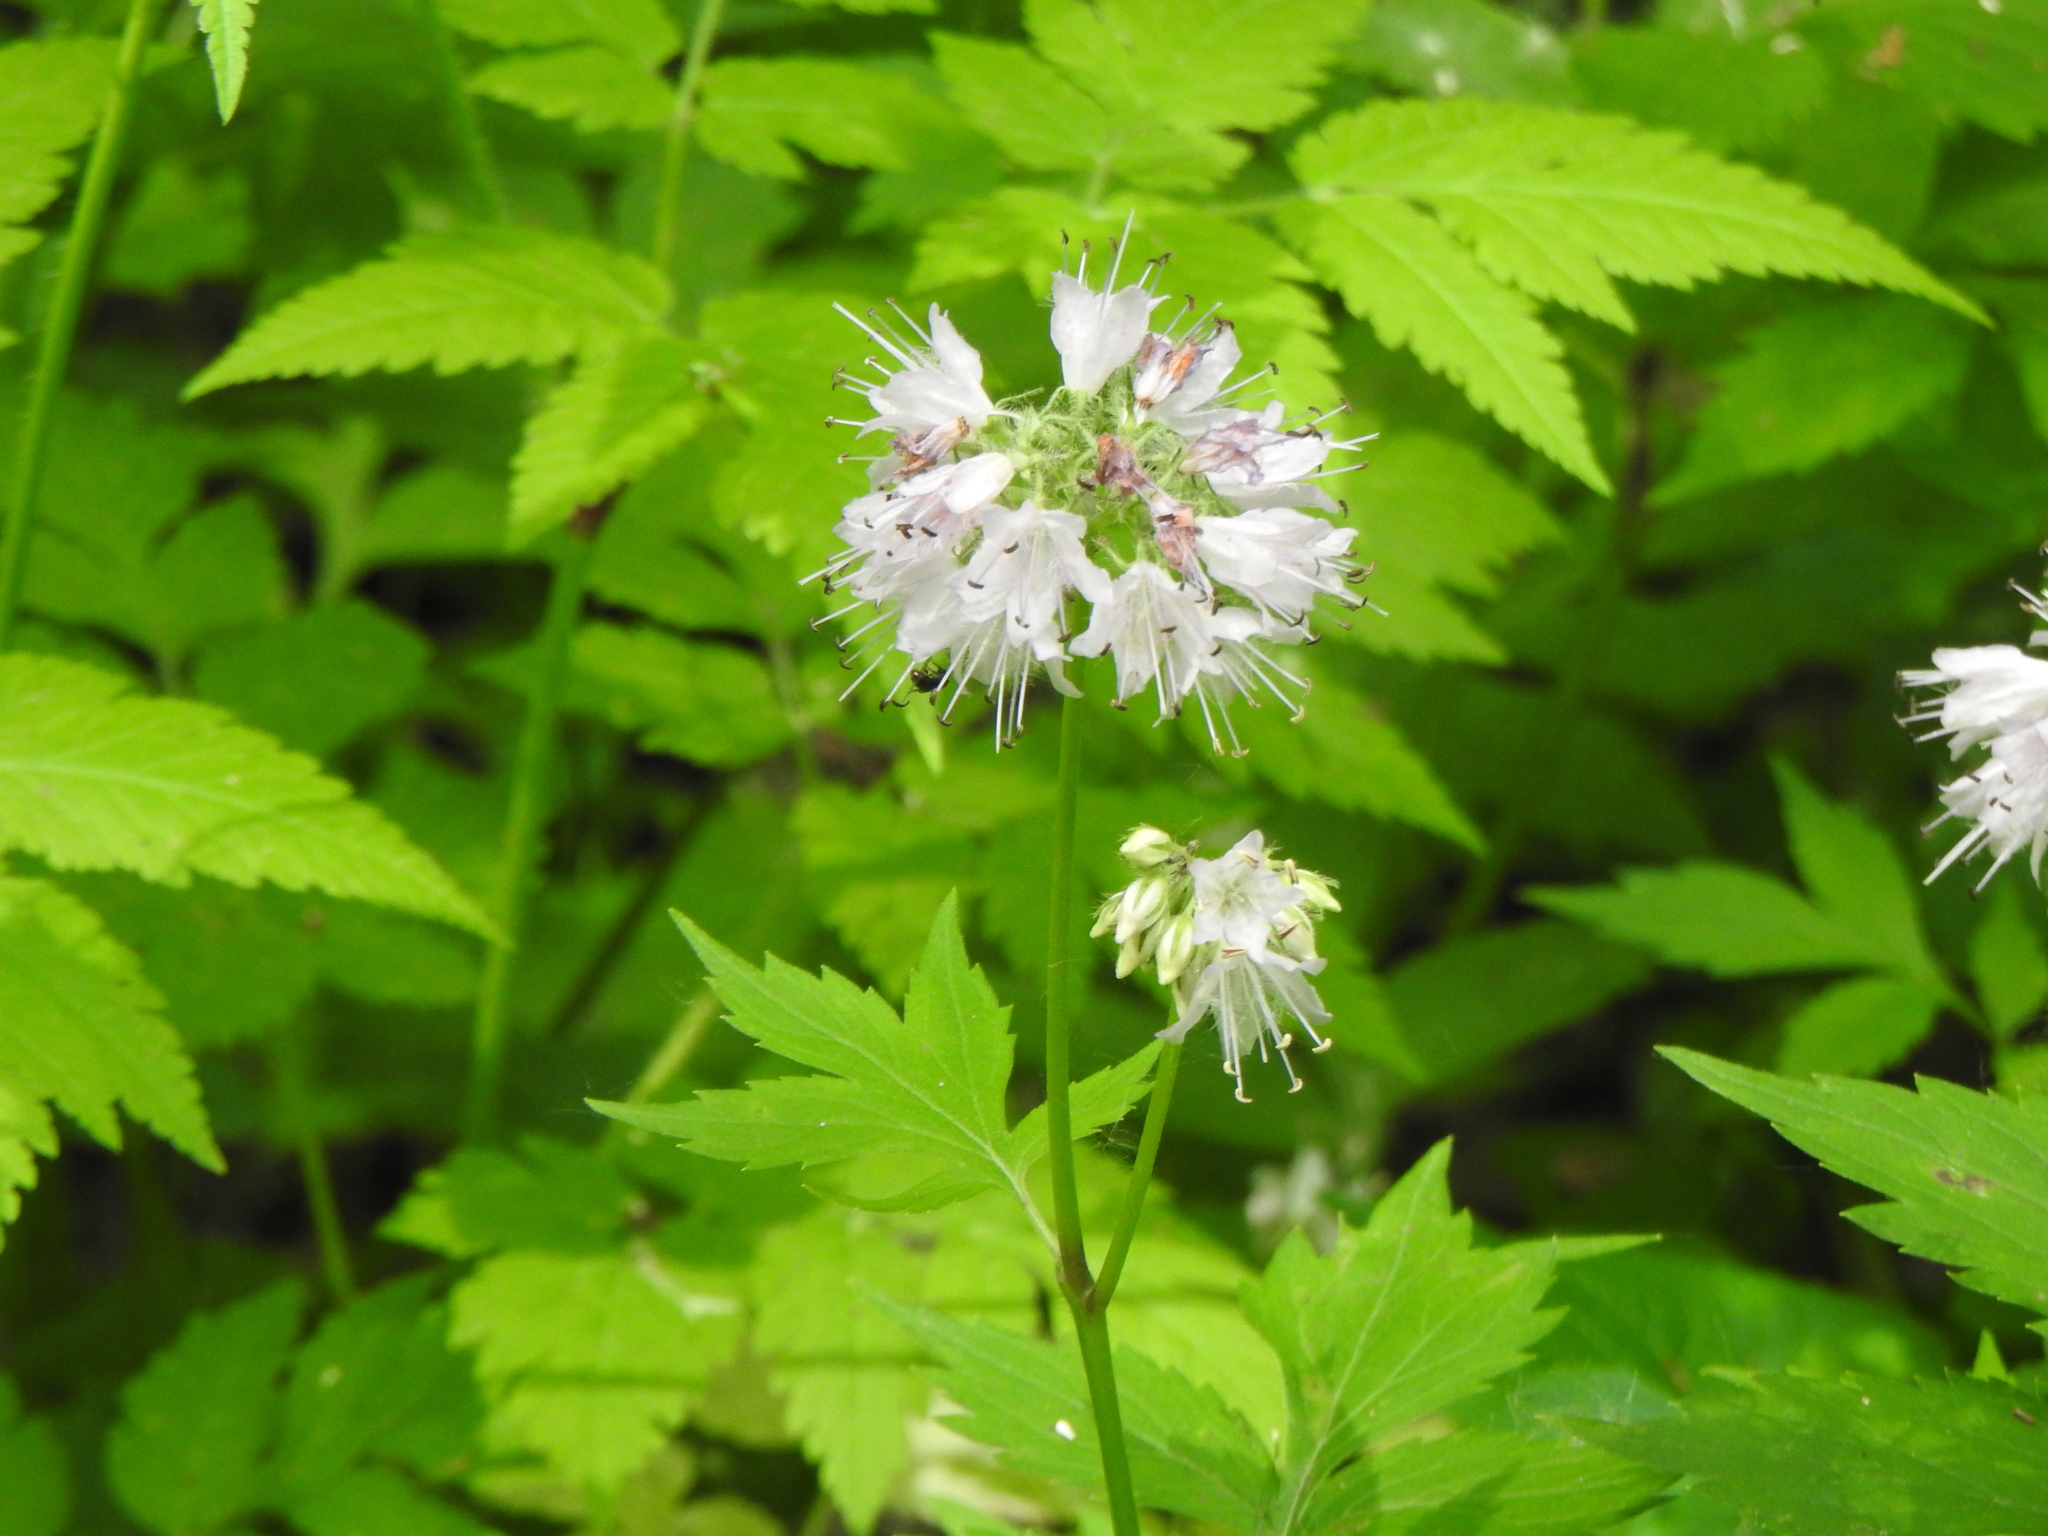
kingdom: Plantae
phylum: Tracheophyta
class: Magnoliopsida
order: Boraginales
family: Hydrophyllaceae
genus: Hydrophyllum
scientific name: Hydrophyllum virginianum
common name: Virginia waterleaf
